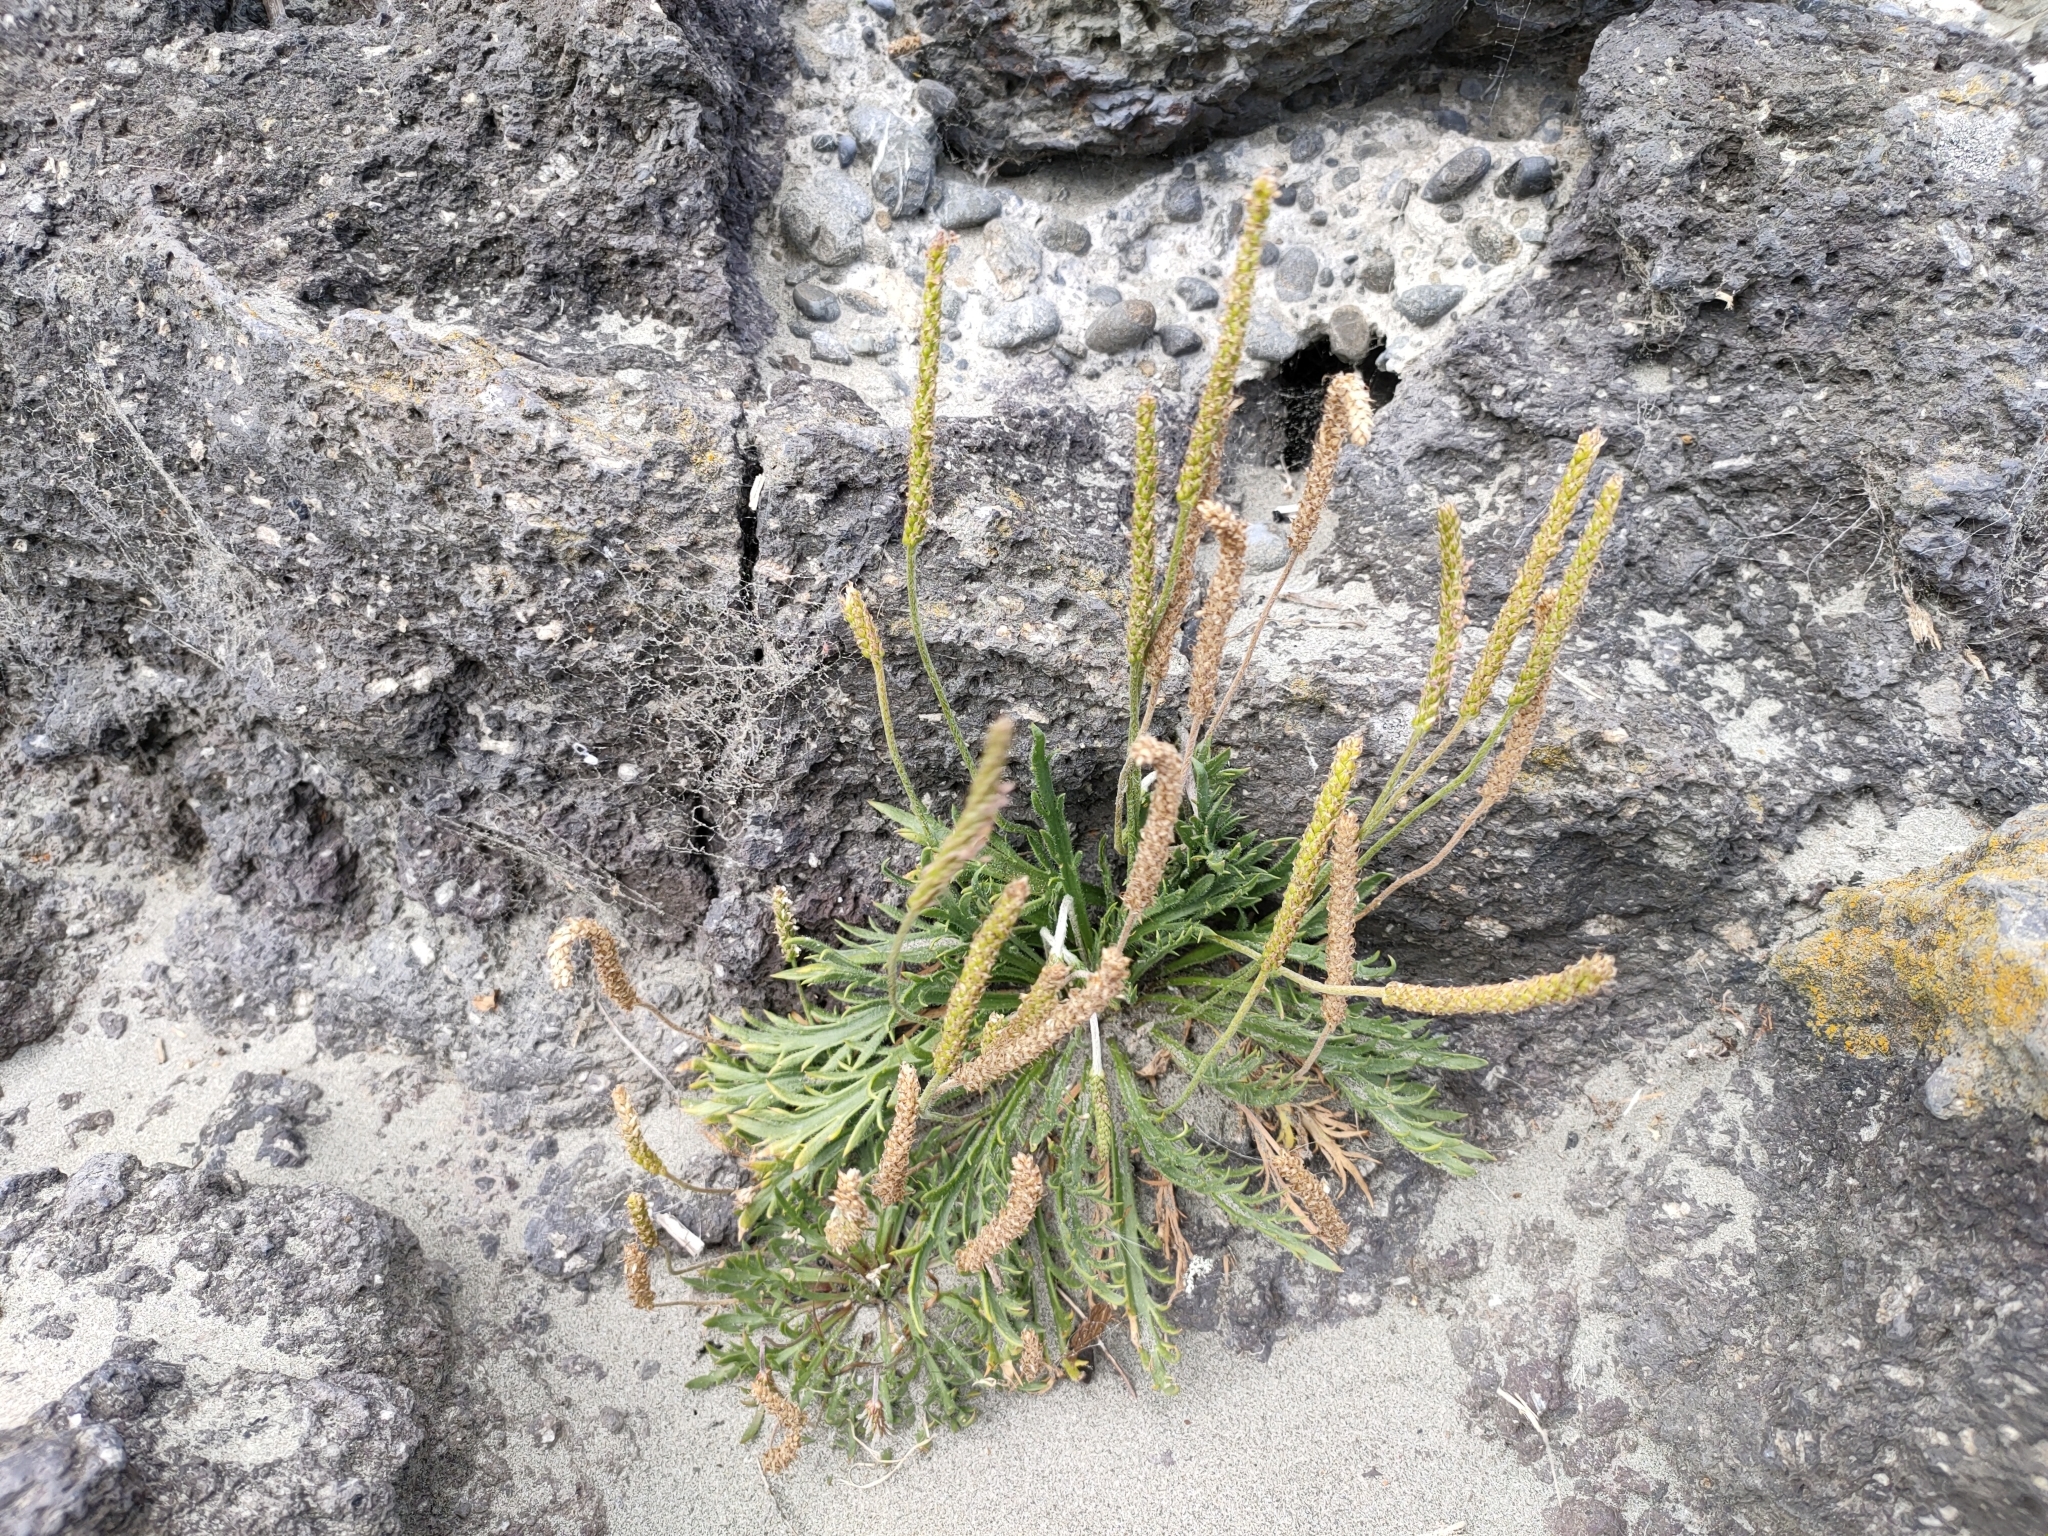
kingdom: Plantae
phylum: Tracheophyta
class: Magnoliopsida
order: Lamiales
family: Plantaginaceae
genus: Plantago
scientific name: Plantago coronopus
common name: Buck's-horn plantain
